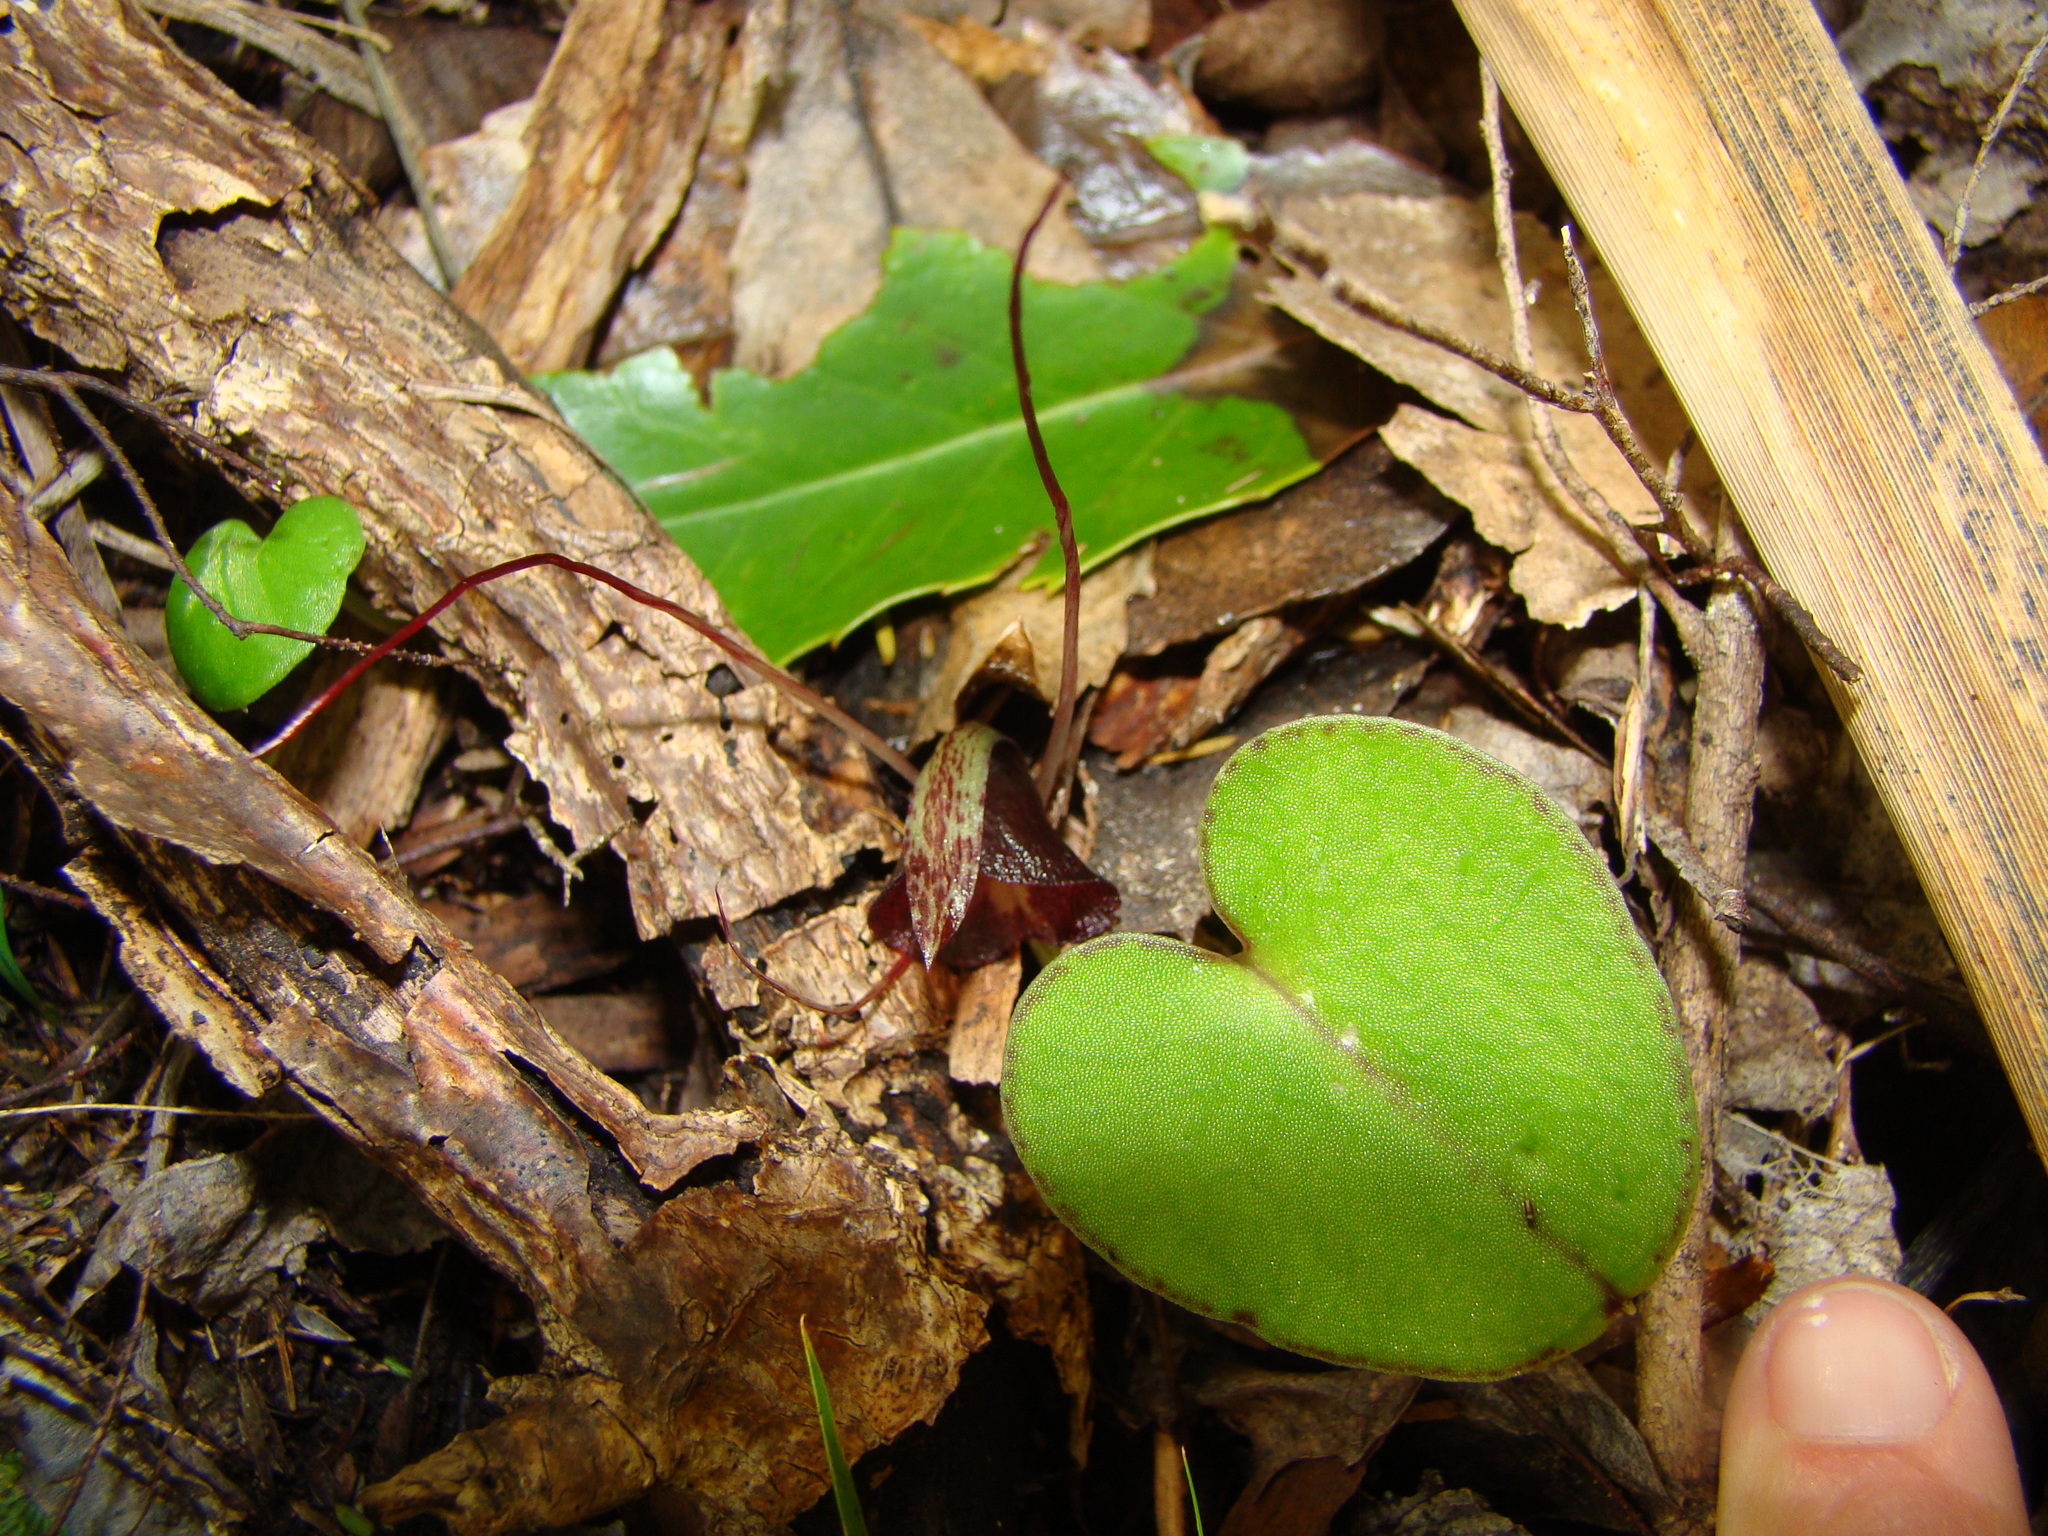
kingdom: Plantae
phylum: Tracheophyta
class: Liliopsida
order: Asparagales
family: Orchidaceae
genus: Corybas
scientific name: Corybas macranthus
